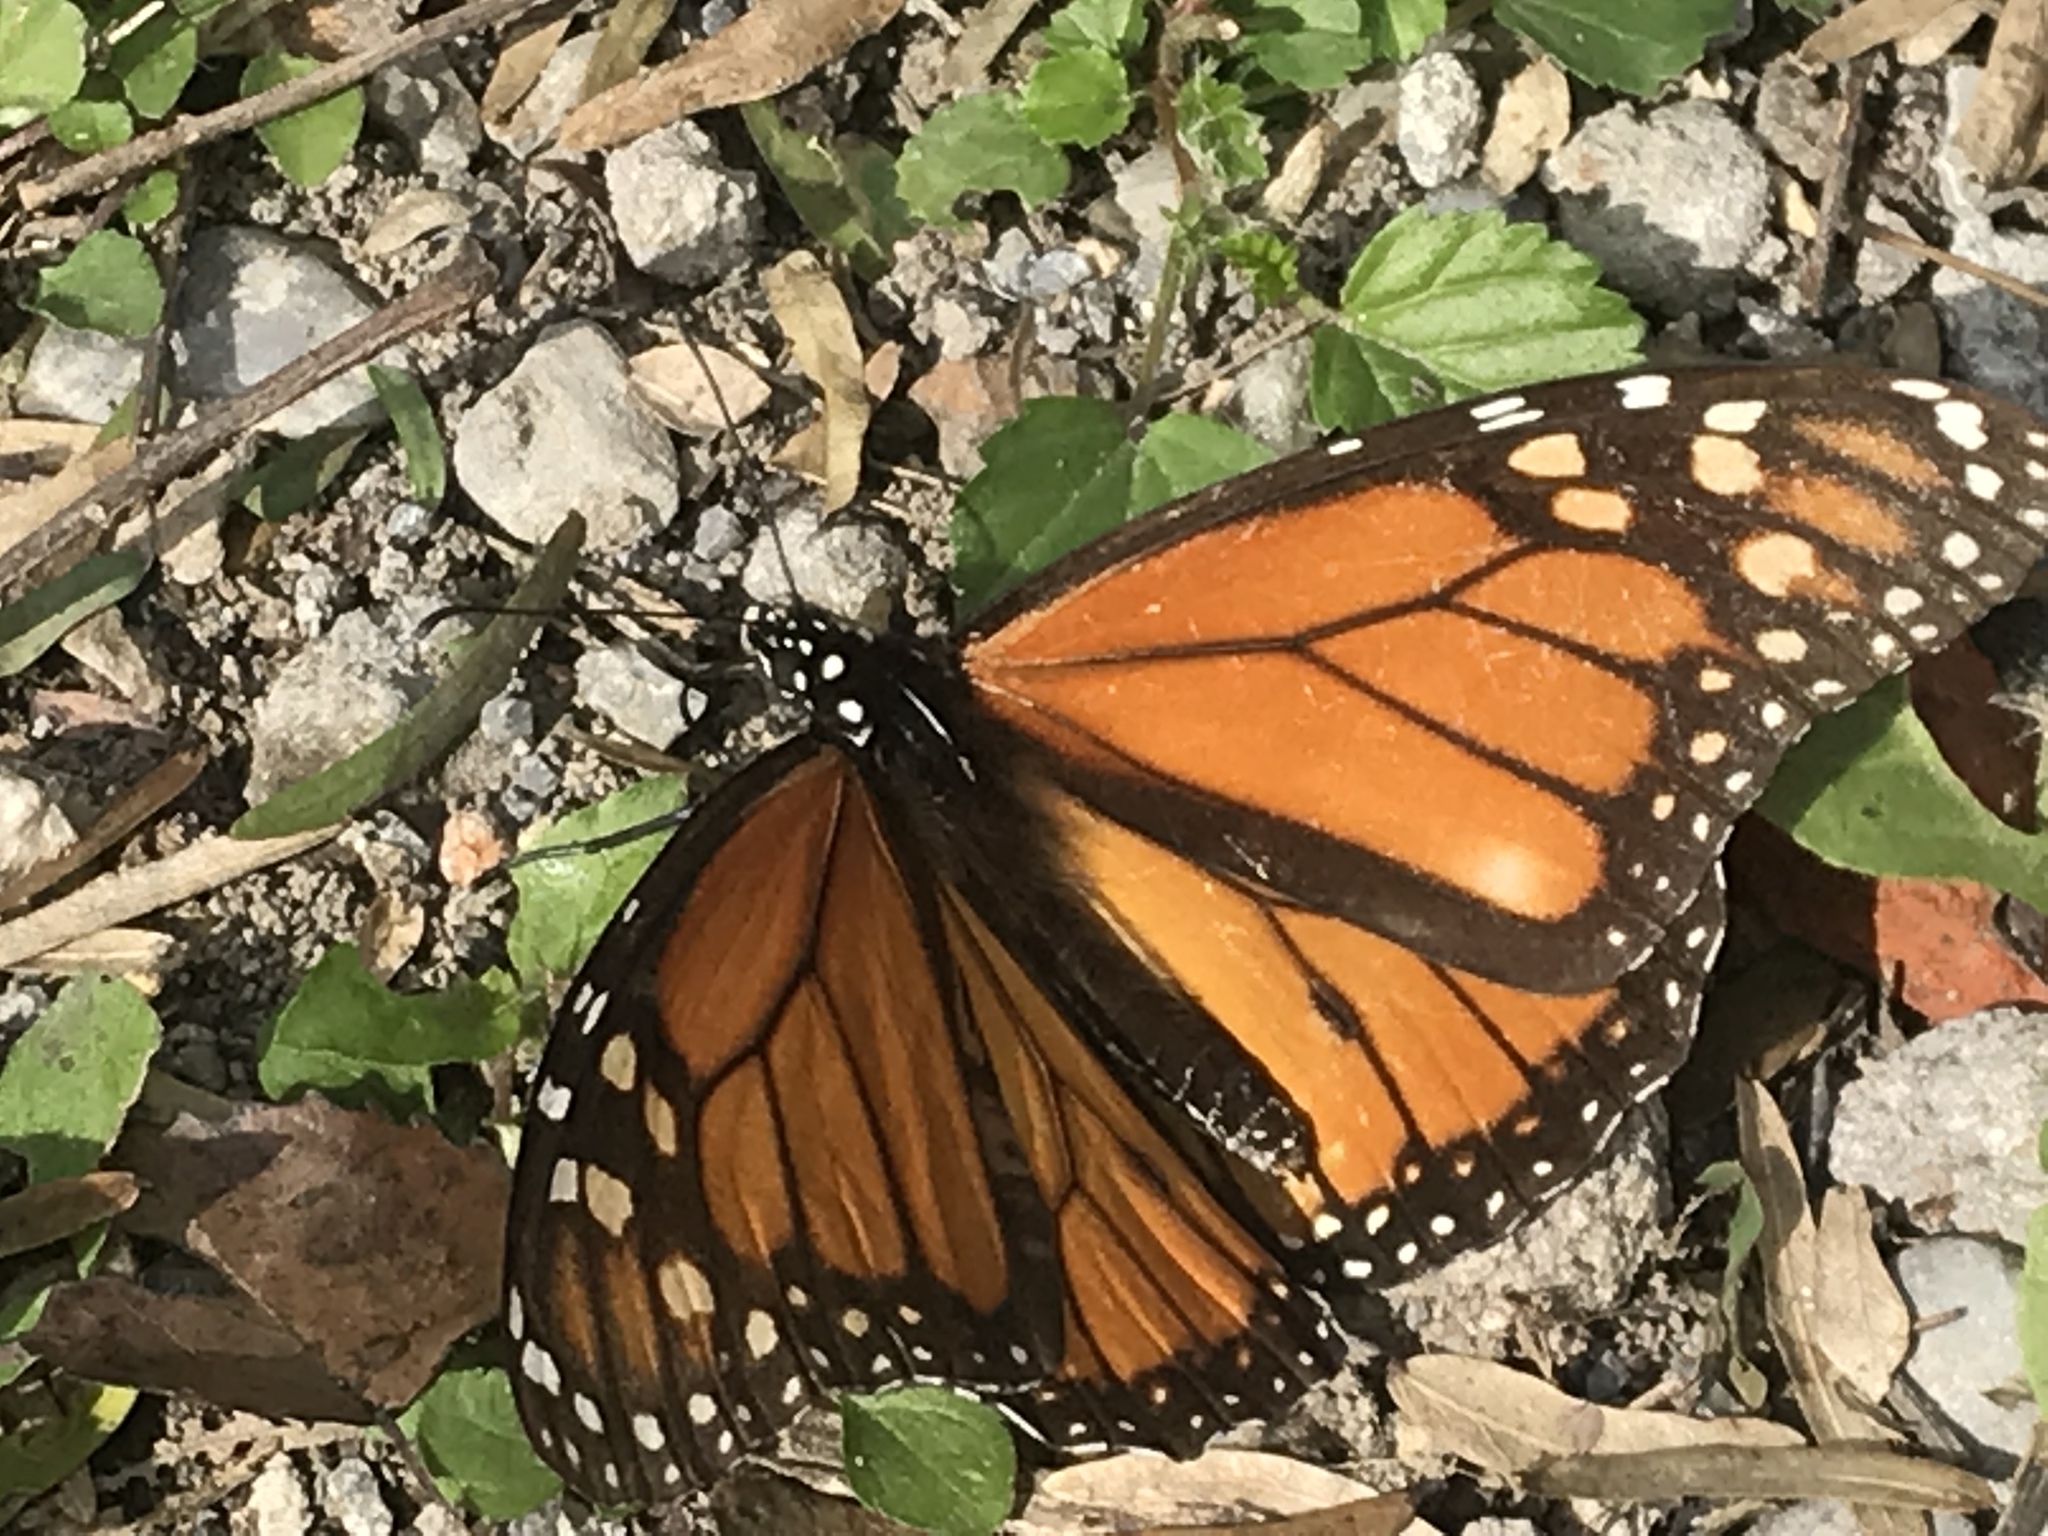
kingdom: Animalia
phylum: Arthropoda
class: Insecta
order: Lepidoptera
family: Nymphalidae
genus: Danaus
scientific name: Danaus plexippus
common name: Monarch
